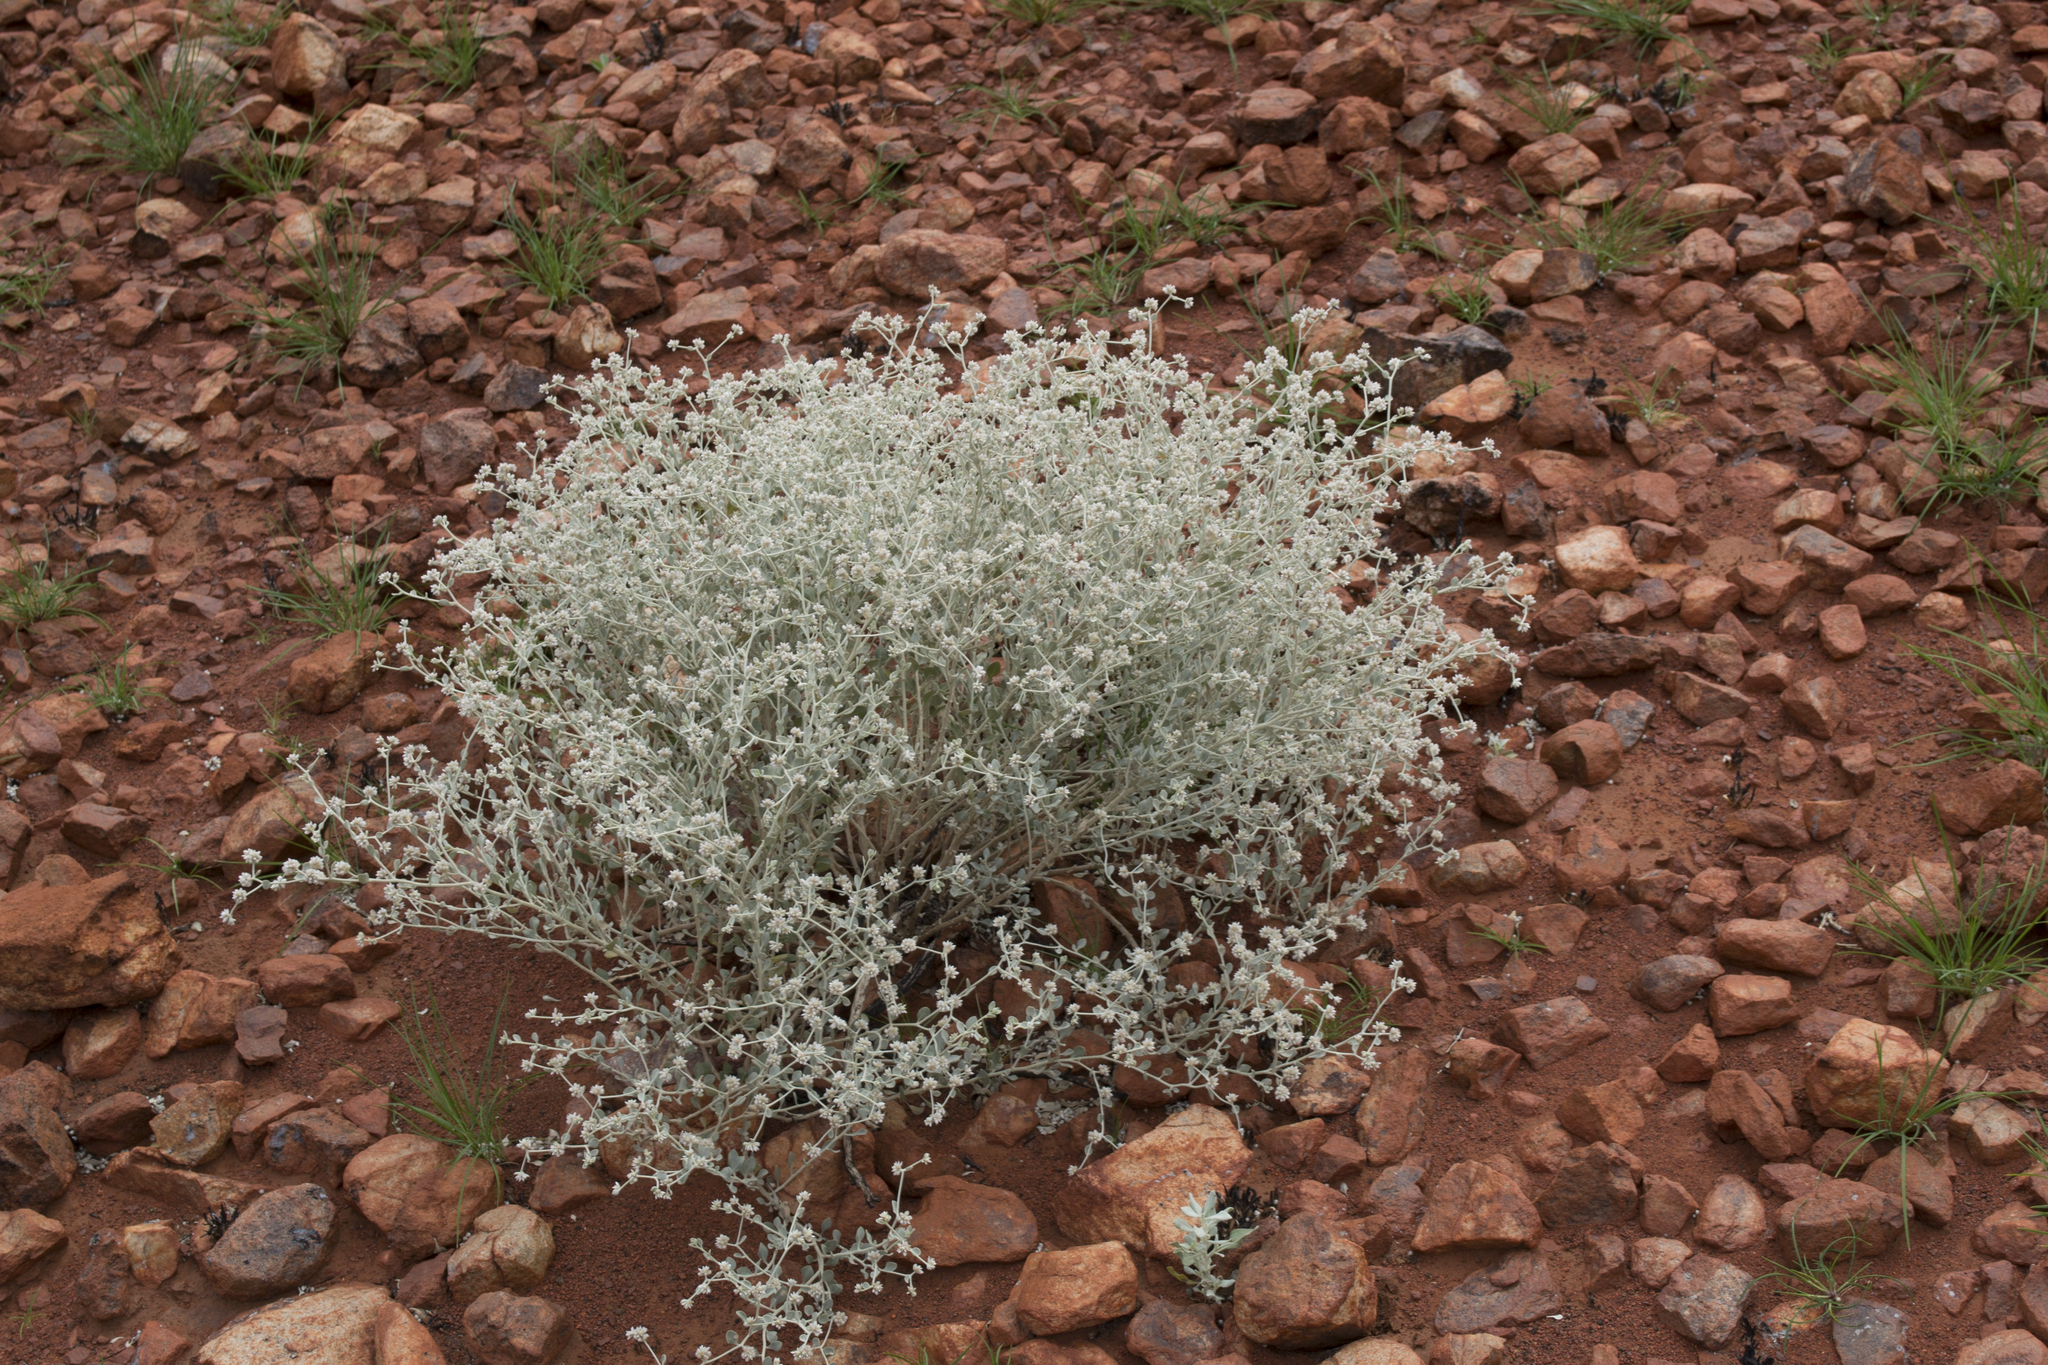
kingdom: Plantae
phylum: Tracheophyta
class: Magnoliopsida
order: Caryophyllales
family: Amaranthaceae
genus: Ptilotus
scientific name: Ptilotus astrolasius
